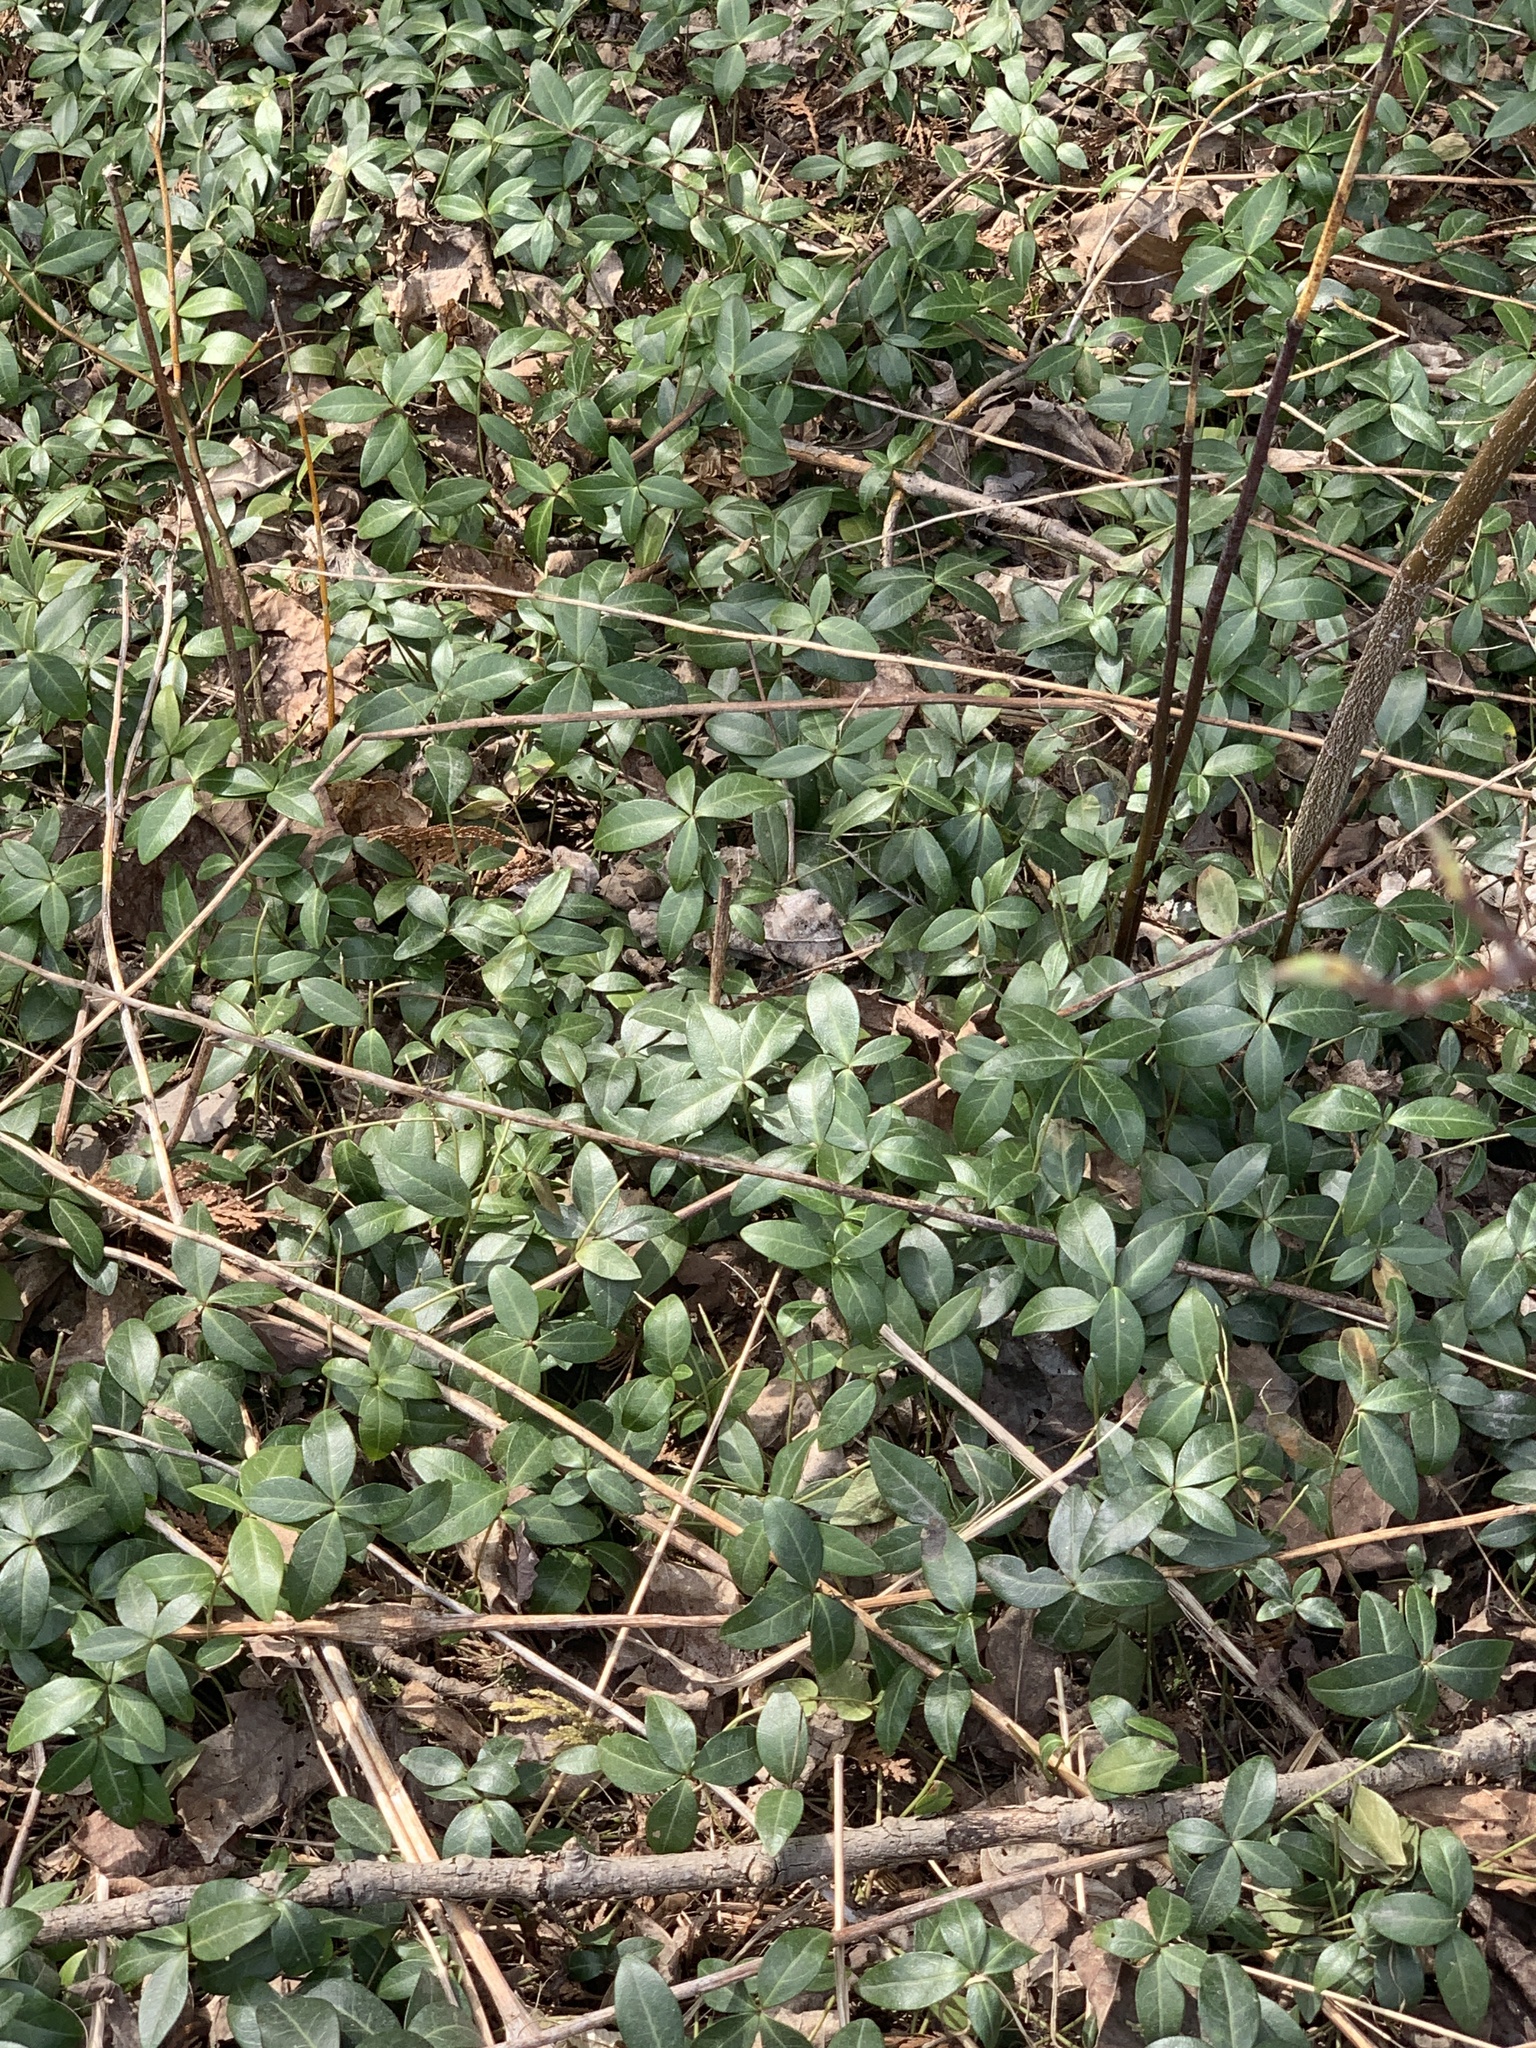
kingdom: Plantae
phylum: Tracheophyta
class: Magnoliopsida
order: Gentianales
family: Apocynaceae
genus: Vinca
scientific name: Vinca minor
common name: Lesser periwinkle
